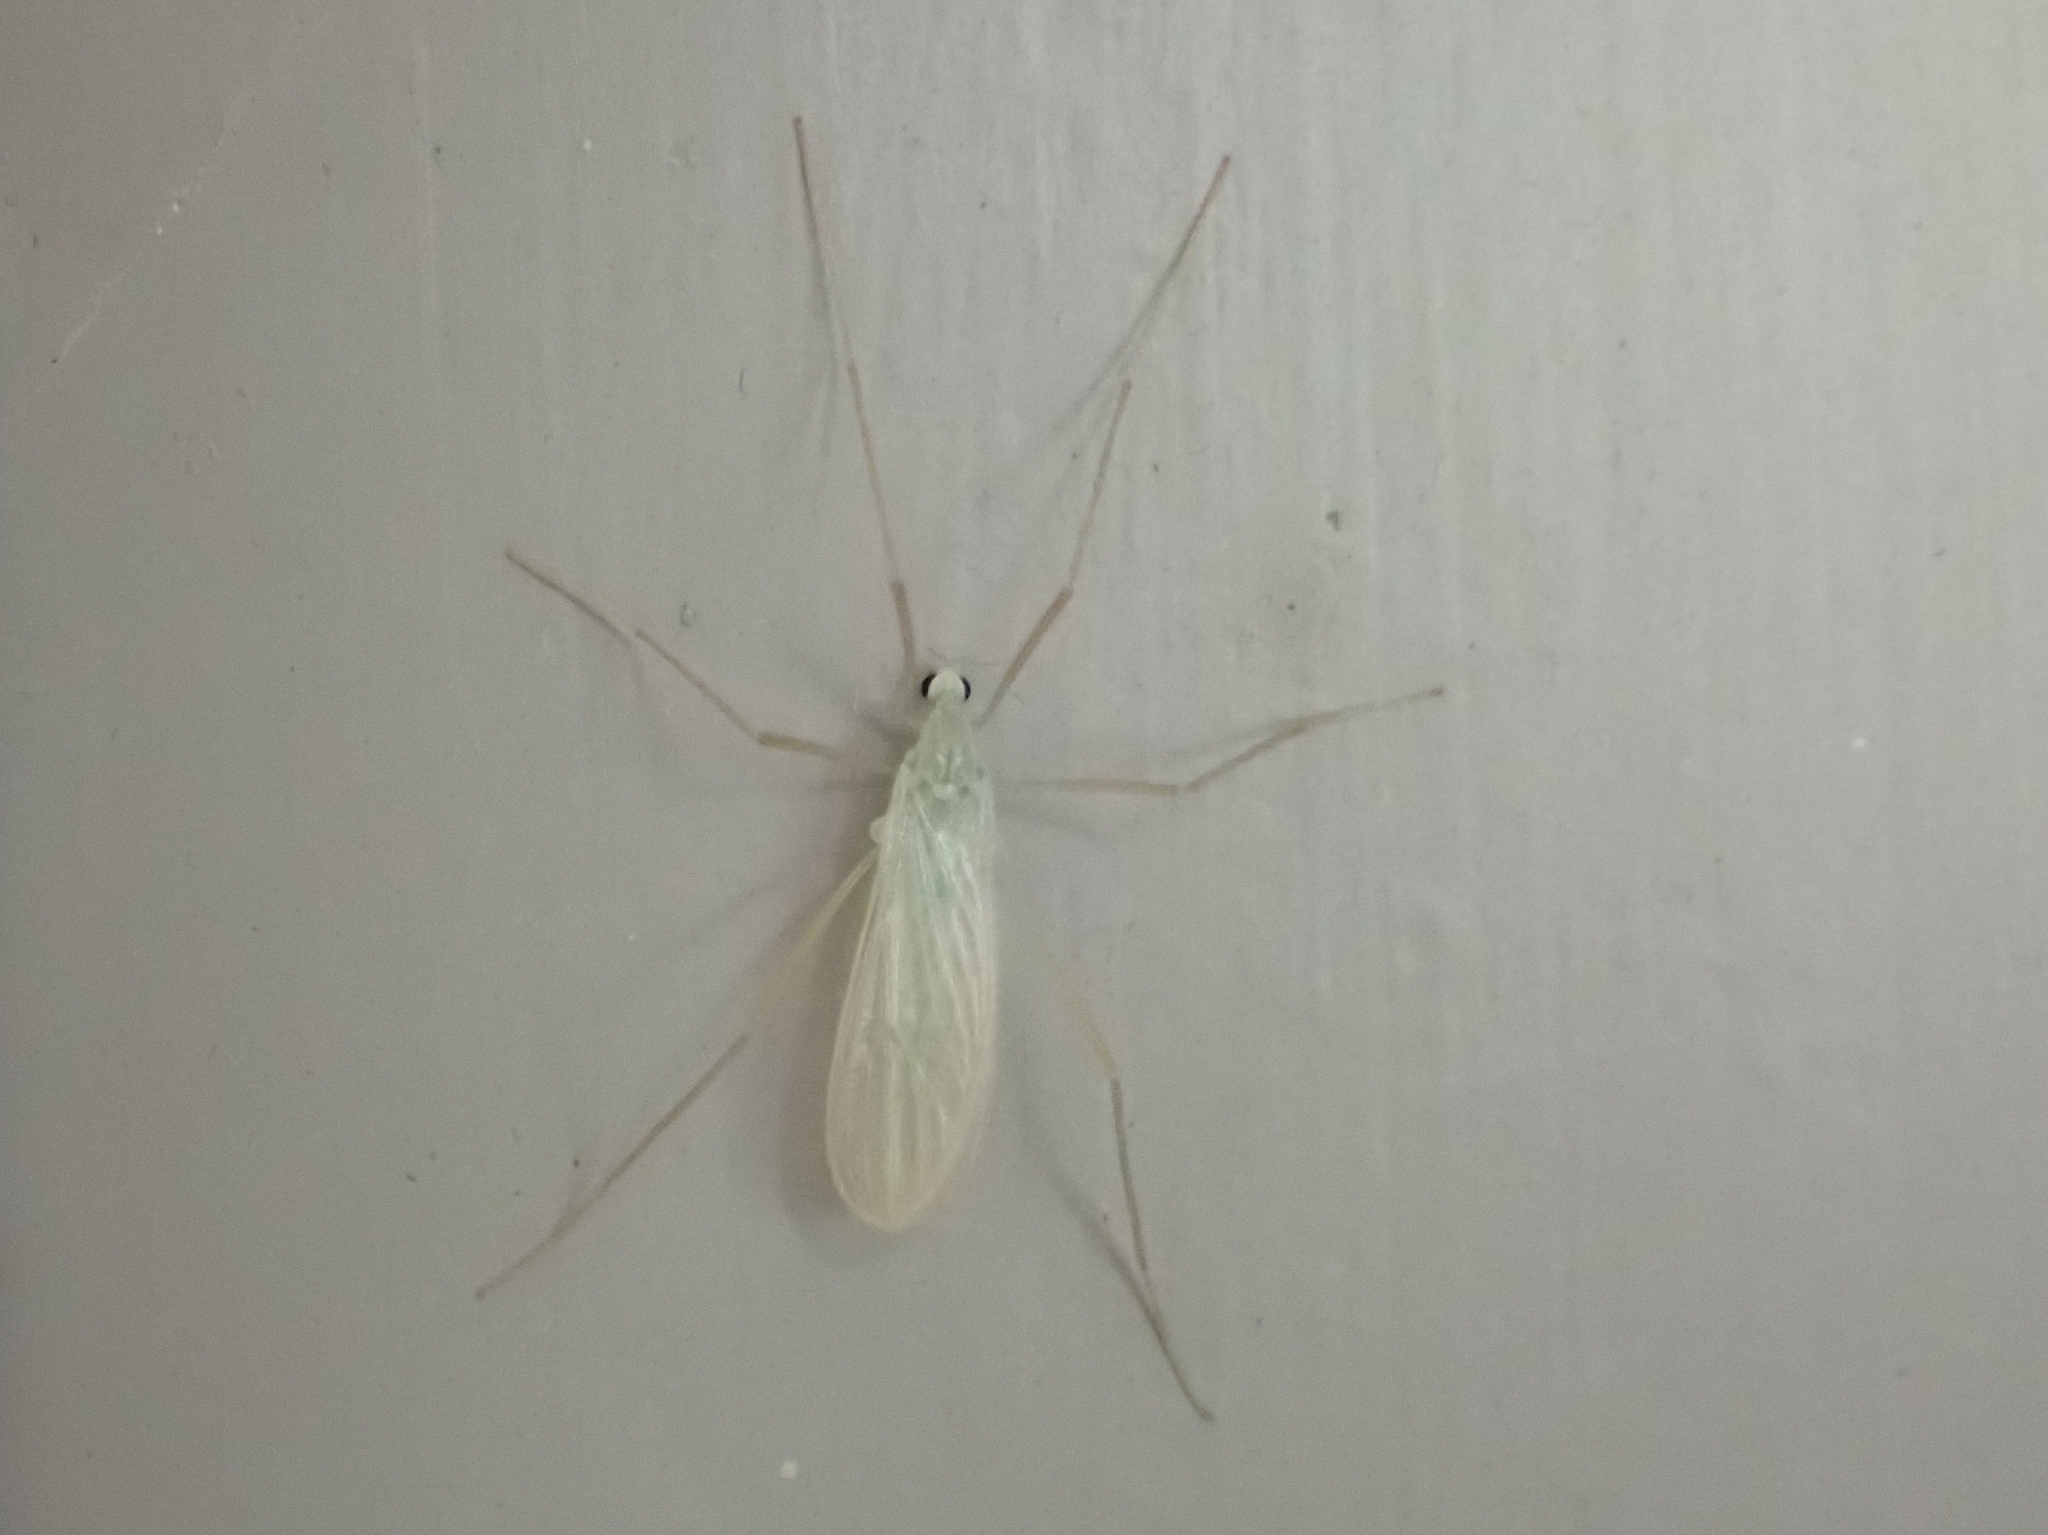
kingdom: Animalia
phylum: Arthropoda
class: Insecta
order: Diptera
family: Limoniidae
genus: Erioptera
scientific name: Erioptera
